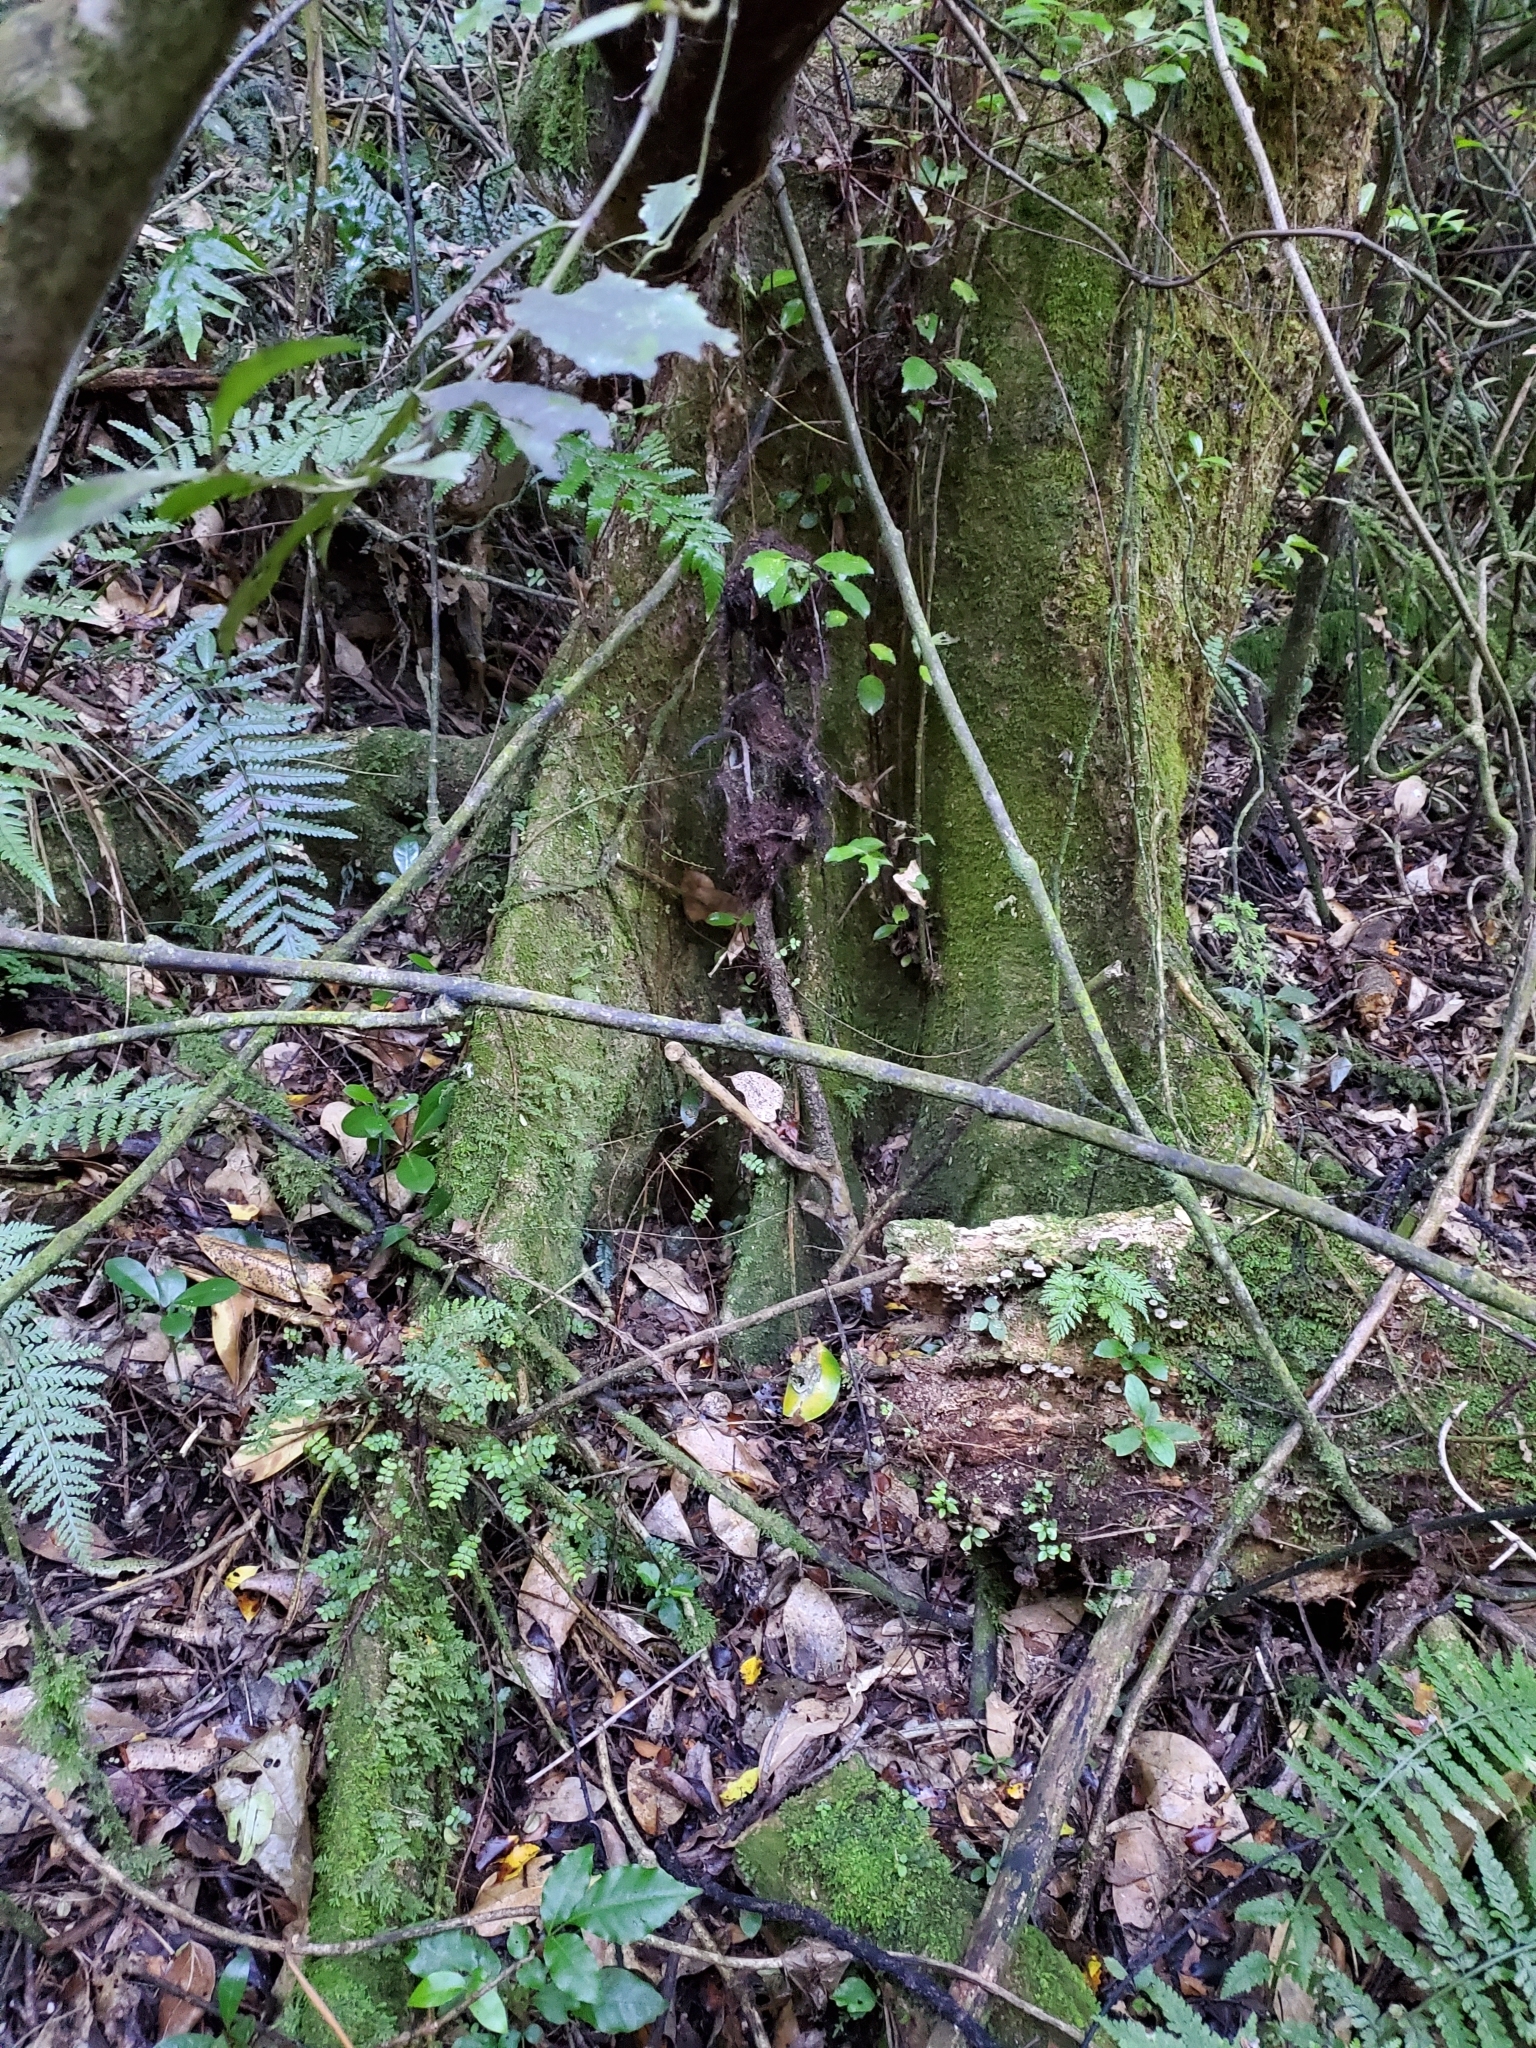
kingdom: Plantae
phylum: Tracheophyta
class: Magnoliopsida
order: Laurales
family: Atherospermataceae
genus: Laurelia
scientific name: Laurelia novae-zelandiae
